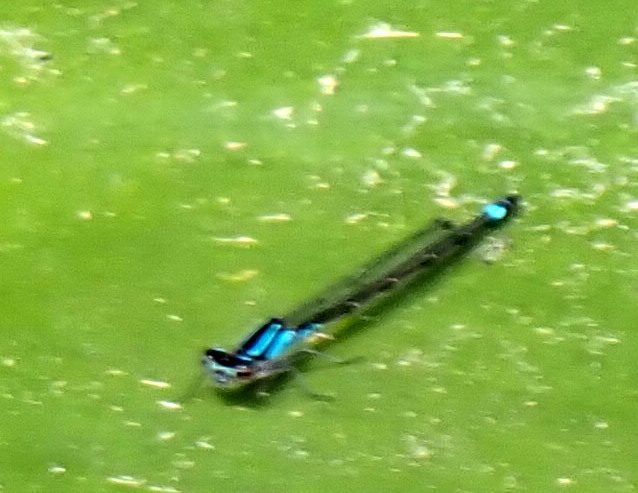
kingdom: Animalia
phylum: Arthropoda
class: Insecta
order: Odonata
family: Coenagrionidae
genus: Ischnura
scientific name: Ischnura kellicotti
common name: Lilypad forktail
